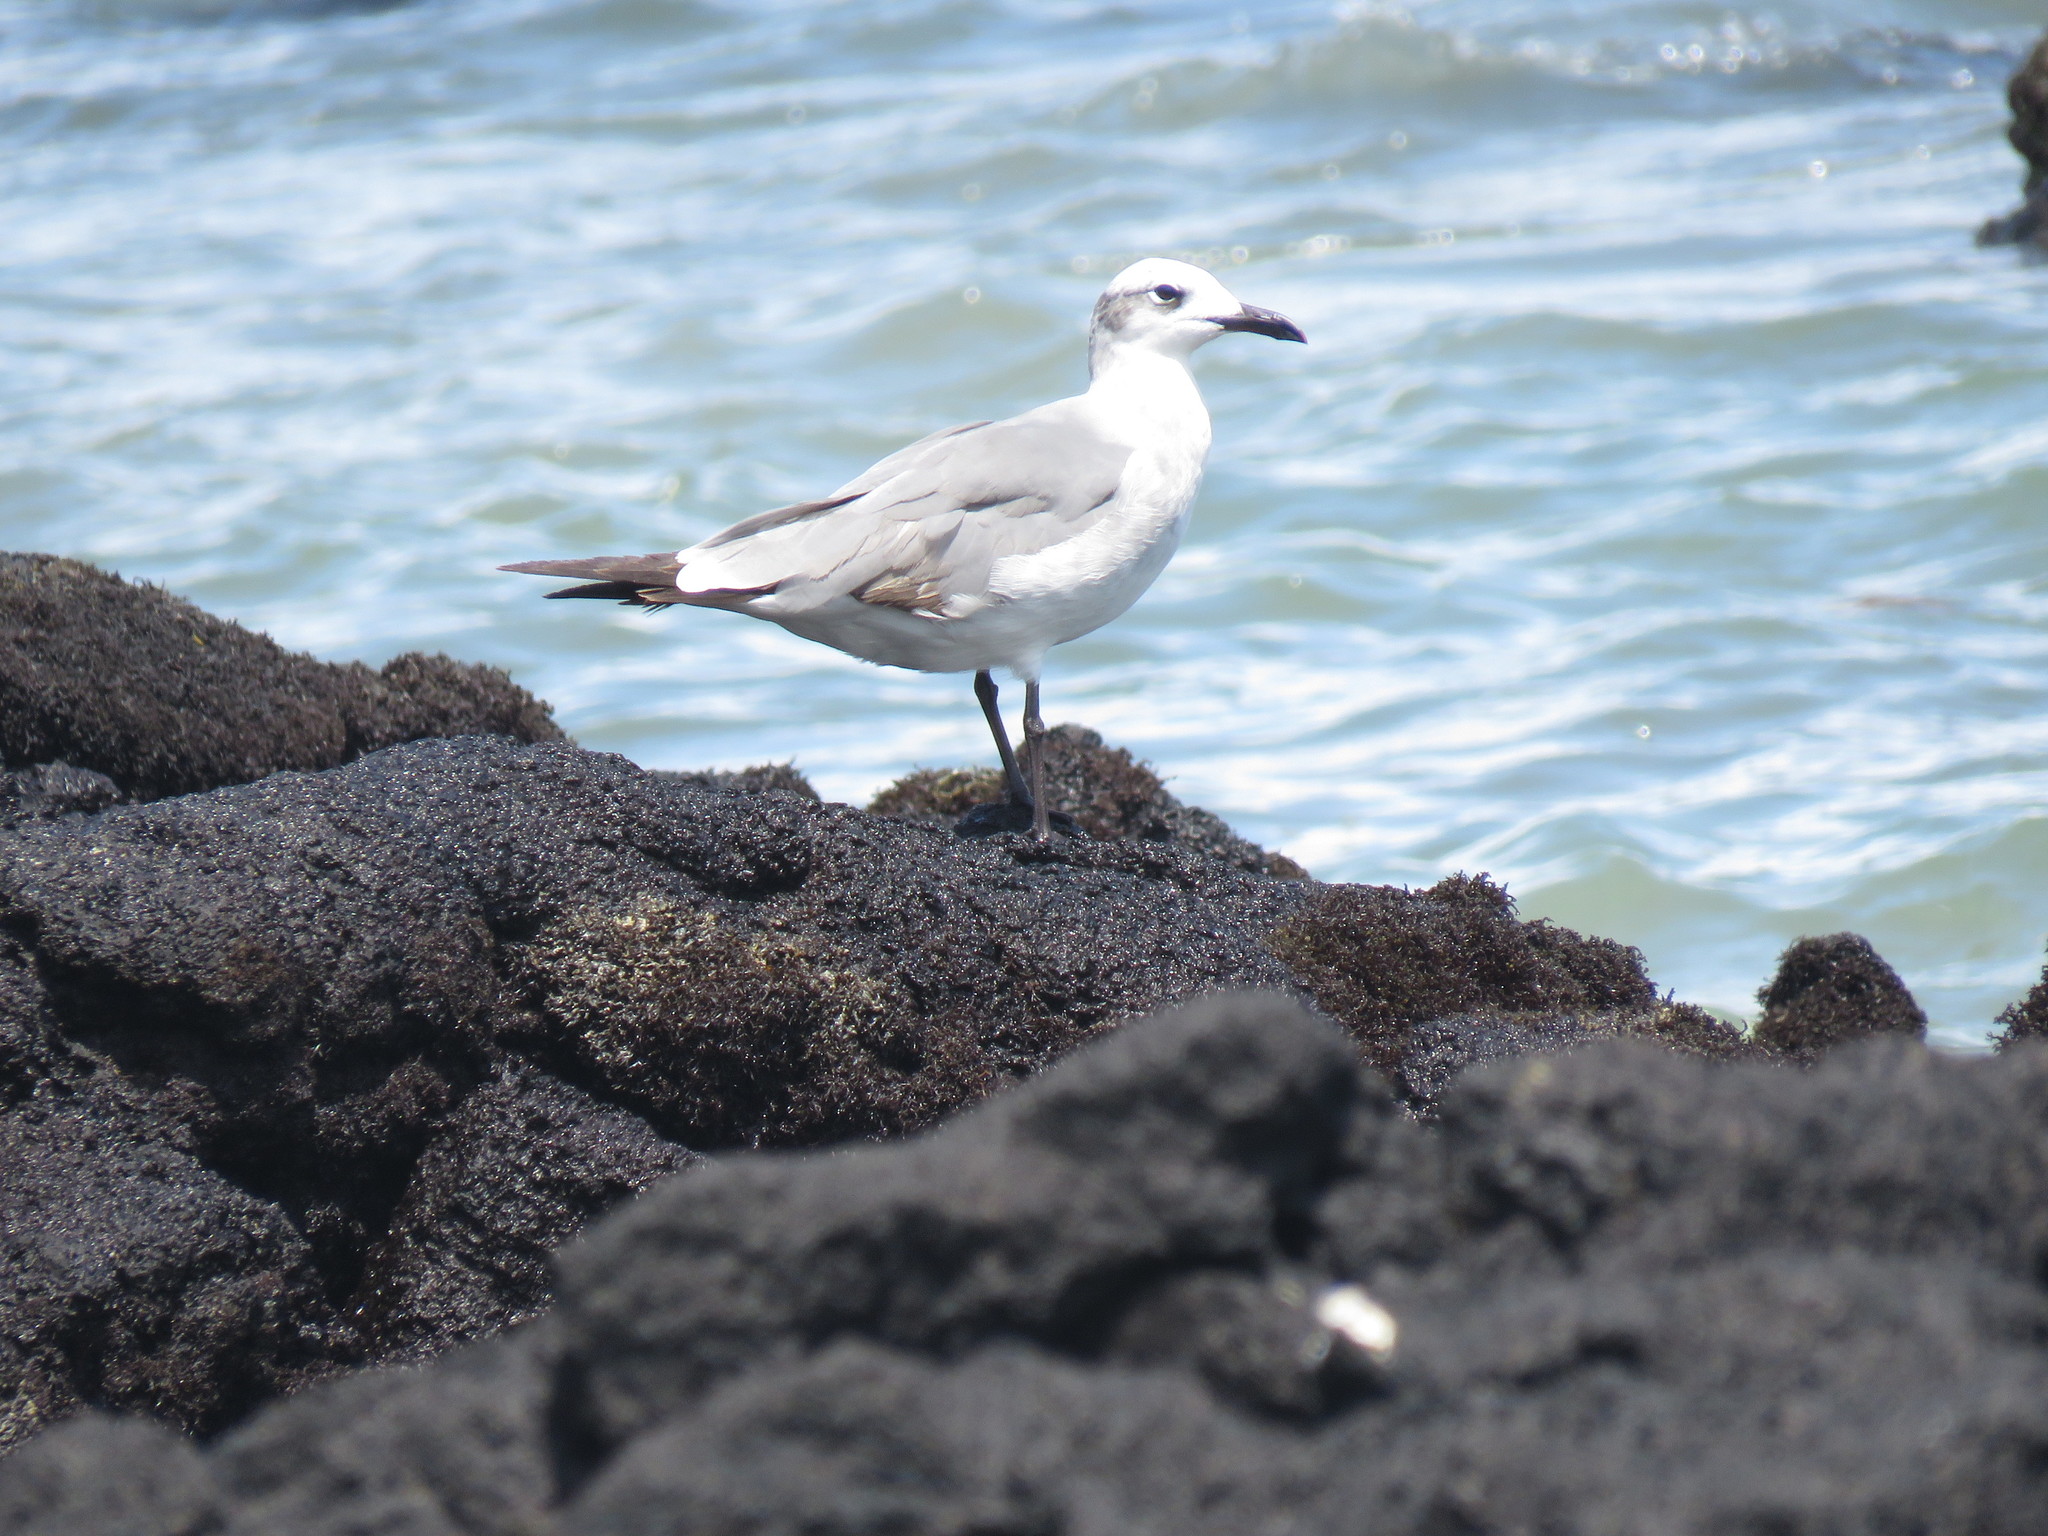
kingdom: Animalia
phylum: Chordata
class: Aves
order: Charadriiformes
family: Laridae
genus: Leucophaeus
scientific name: Leucophaeus atricilla
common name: Laughing gull
